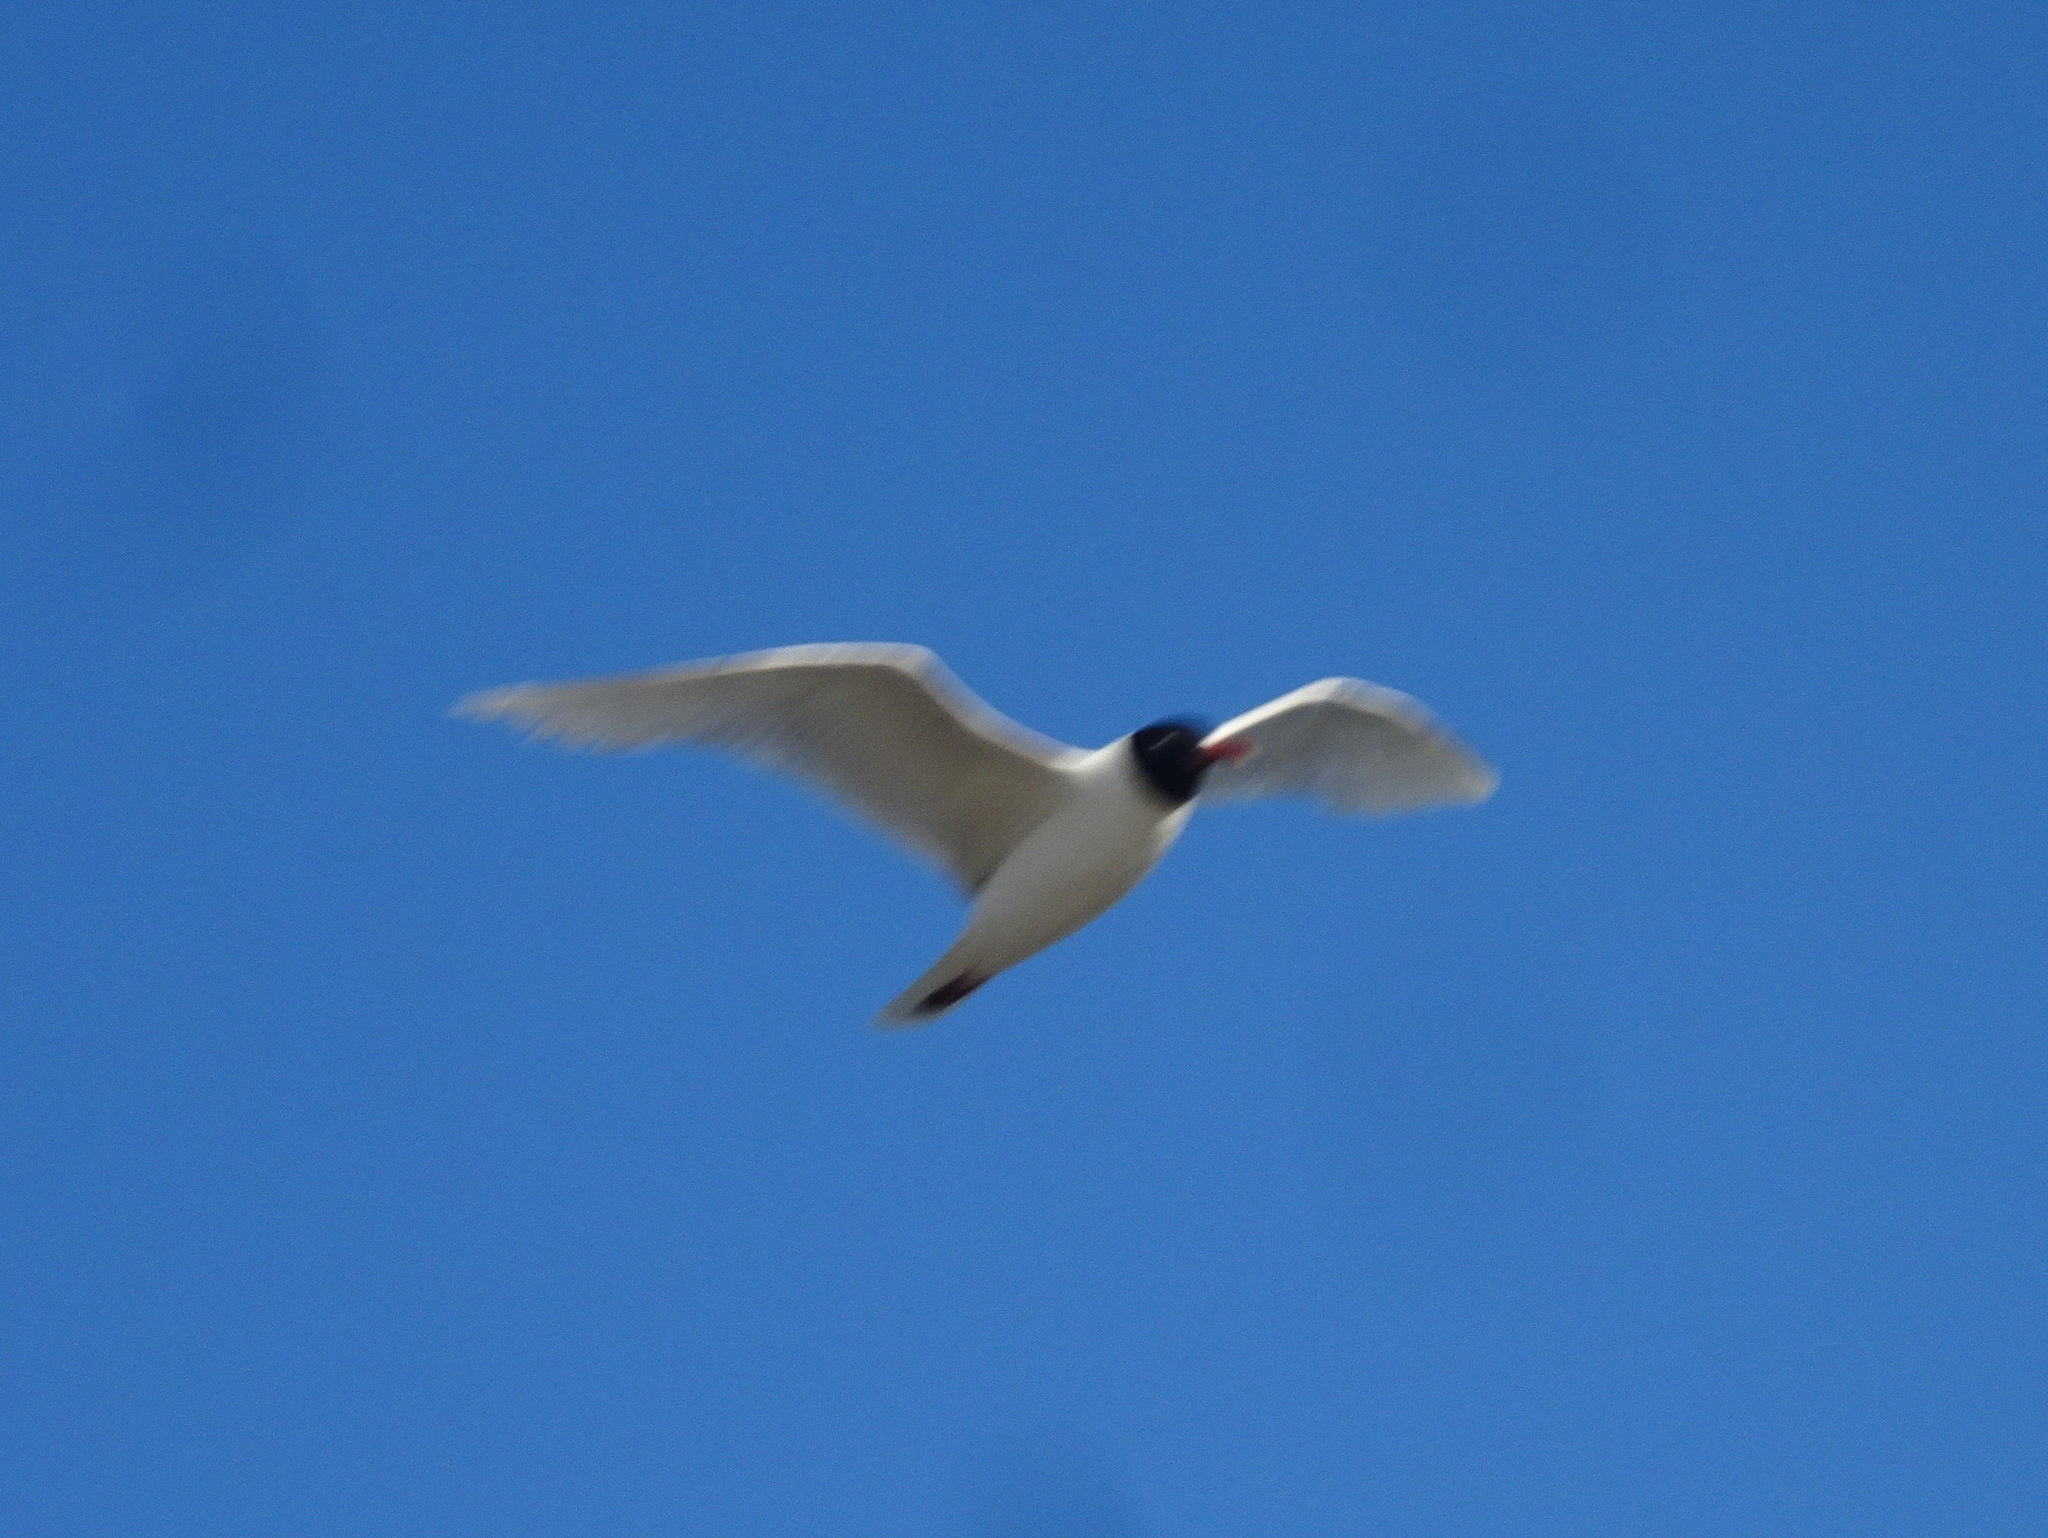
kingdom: Animalia
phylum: Chordata
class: Aves
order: Charadriiformes
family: Laridae
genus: Ichthyaetus
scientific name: Ichthyaetus melanocephalus
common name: Mediterranean gull
